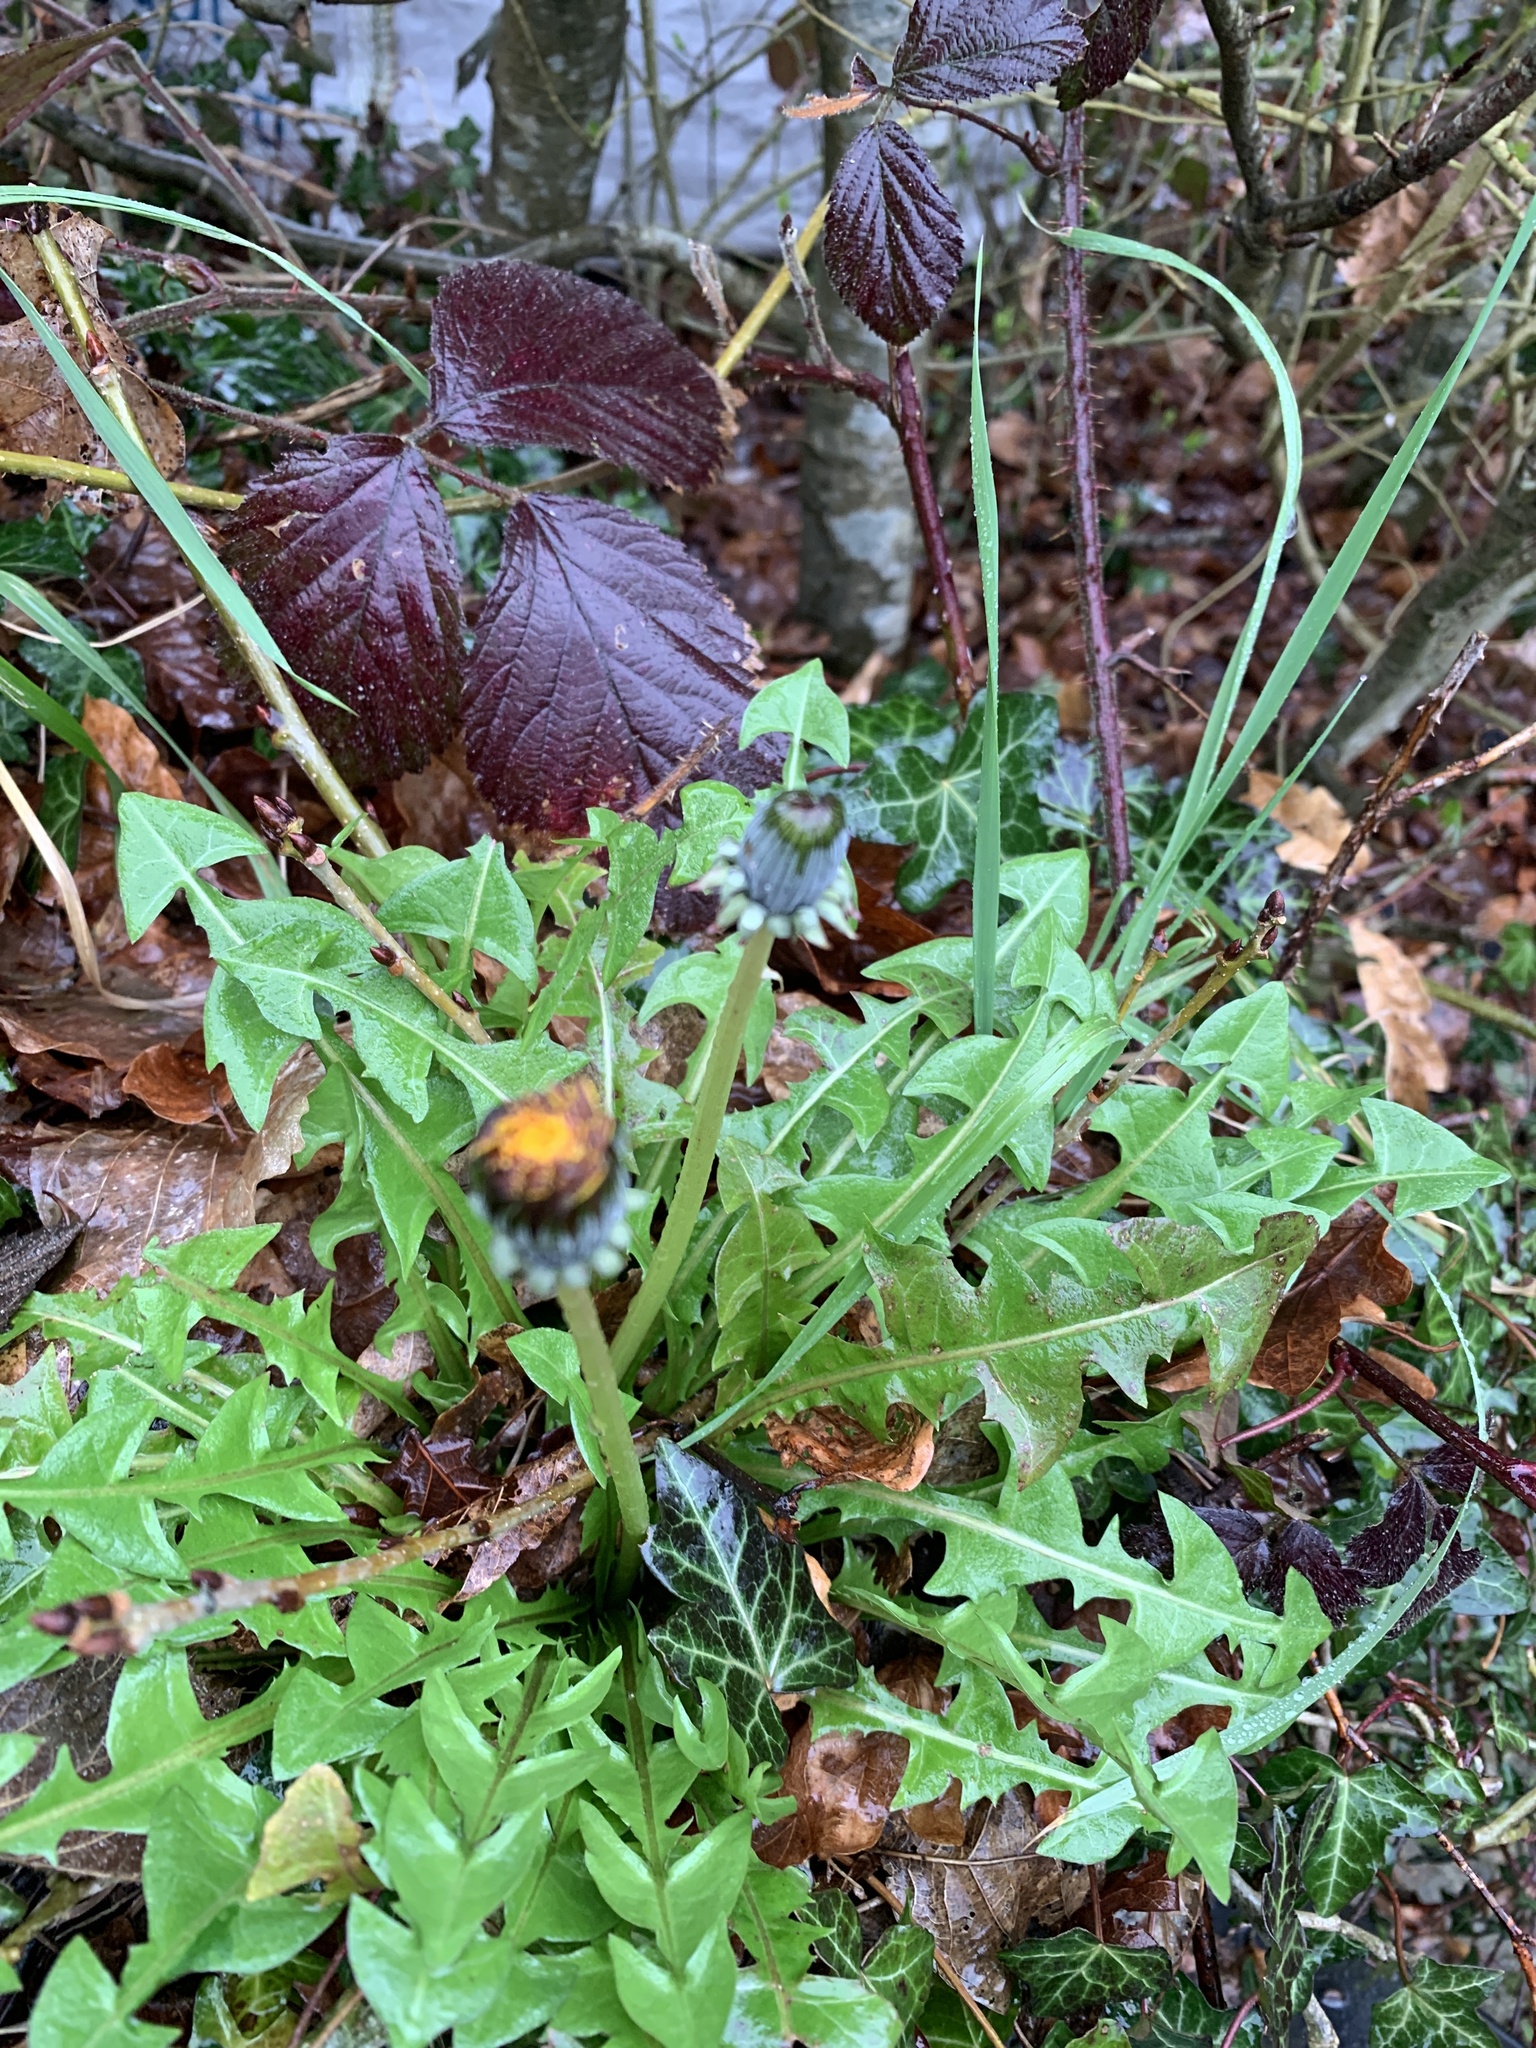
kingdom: Plantae
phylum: Tracheophyta
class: Magnoliopsida
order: Asterales
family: Asteraceae
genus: Taraxacum
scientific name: Taraxacum officinale
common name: Common dandelion
